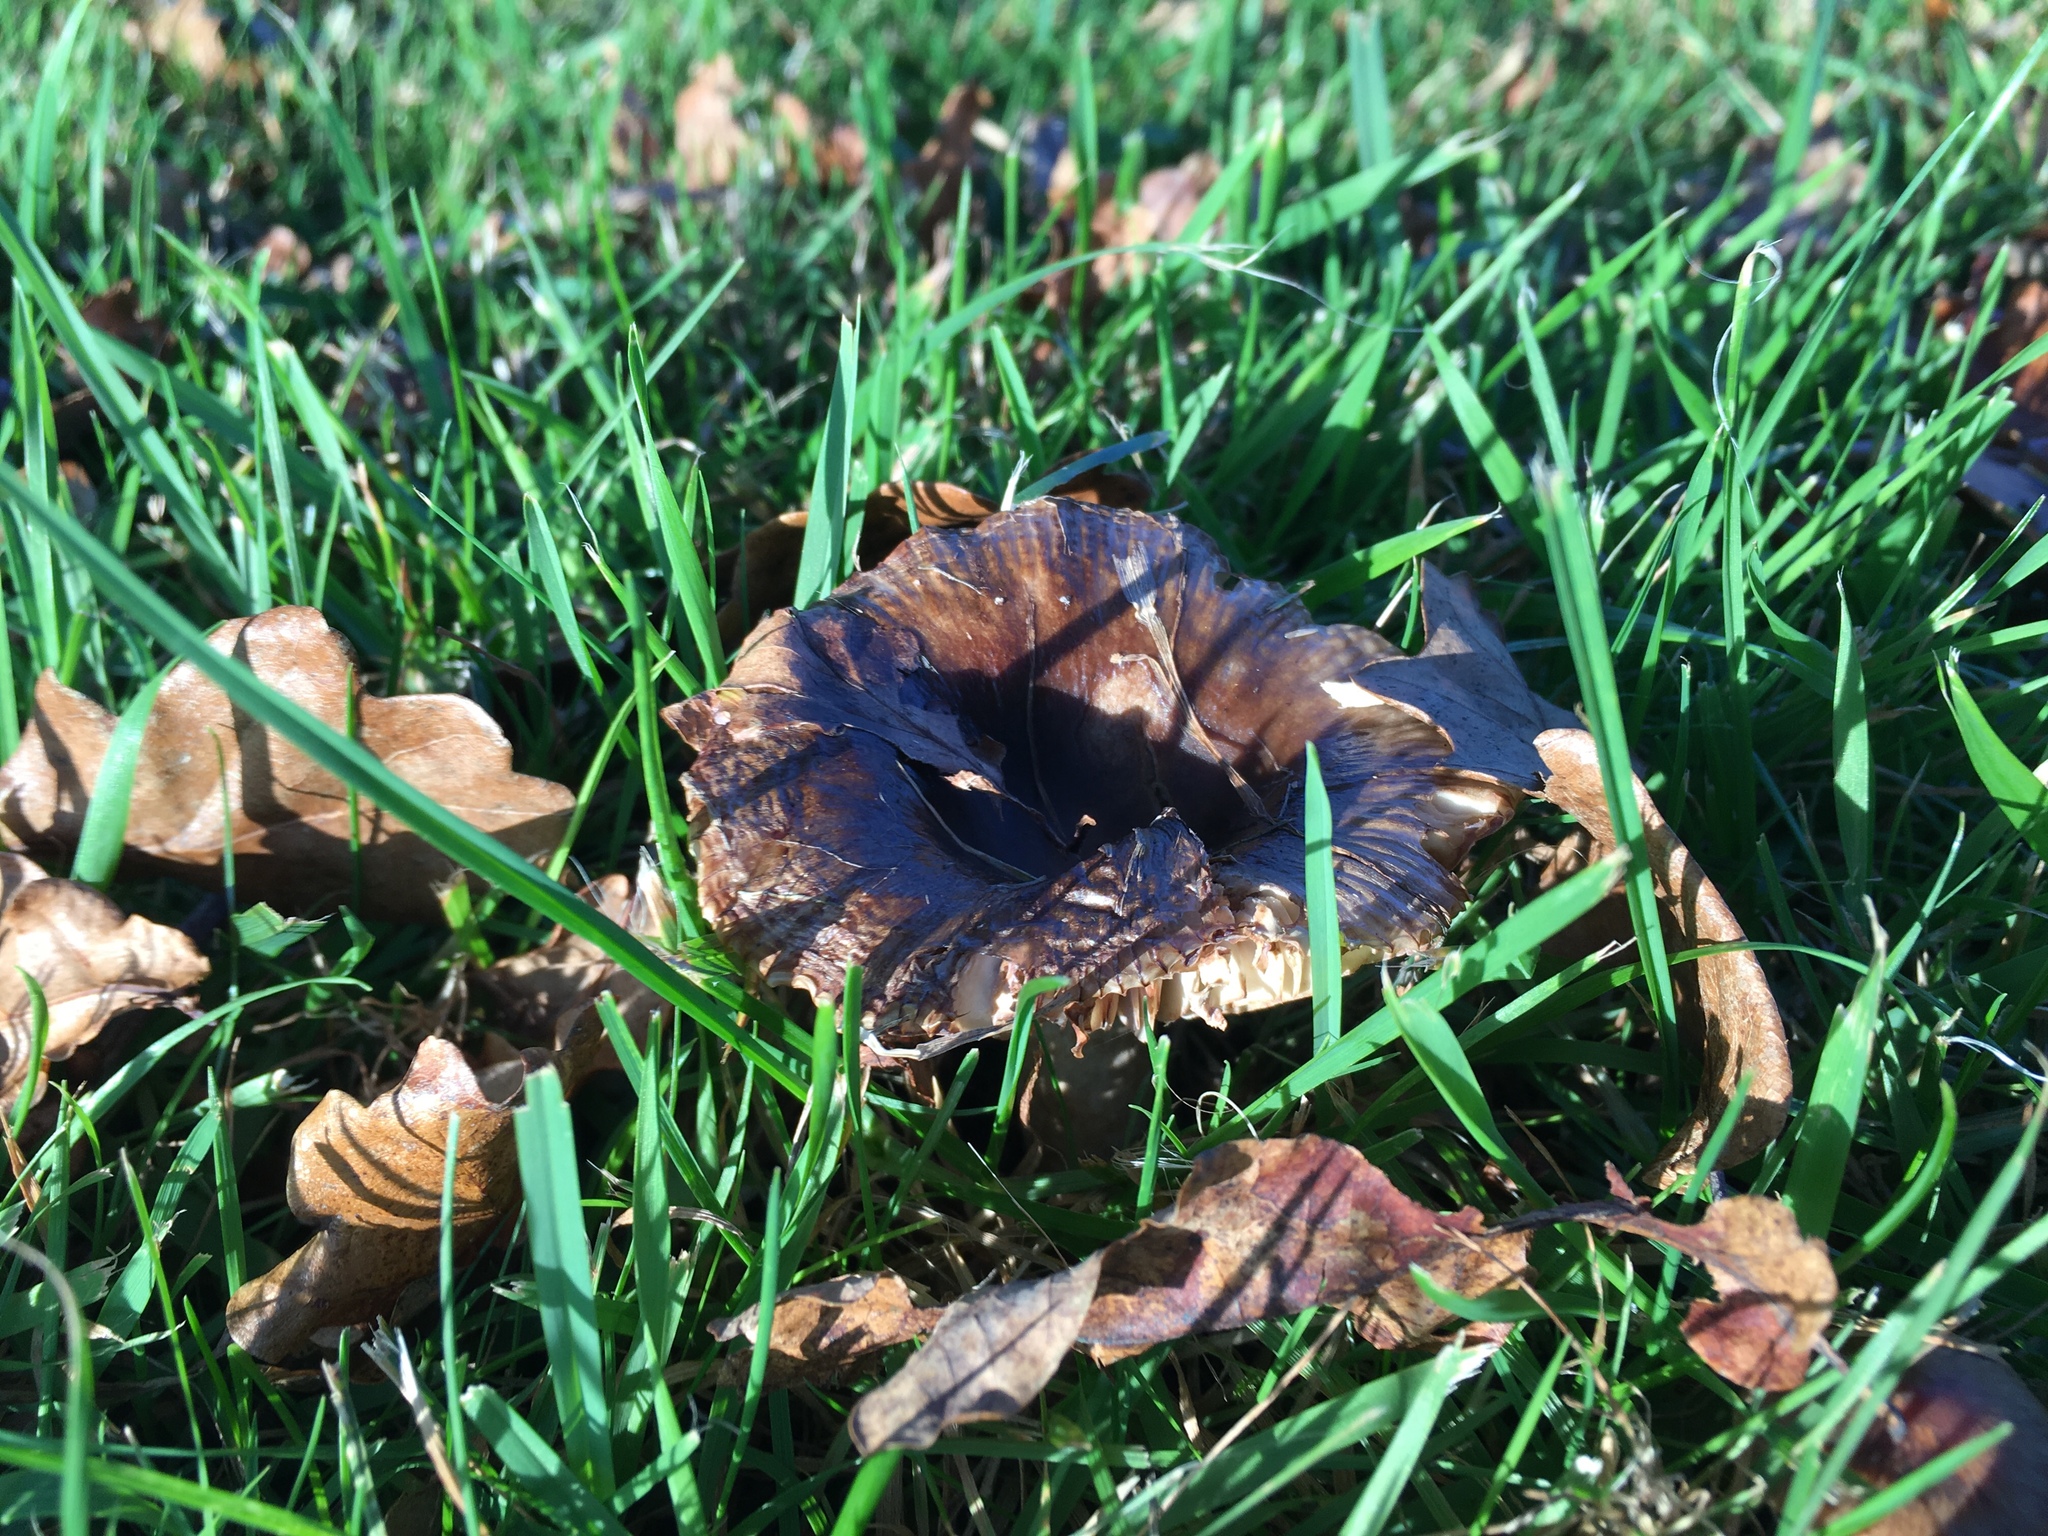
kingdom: Fungi
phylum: Basidiomycota
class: Agaricomycetes
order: Russulales
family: Russulaceae
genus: Russula
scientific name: Russula amoenolens
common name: Camembert brittlegill
